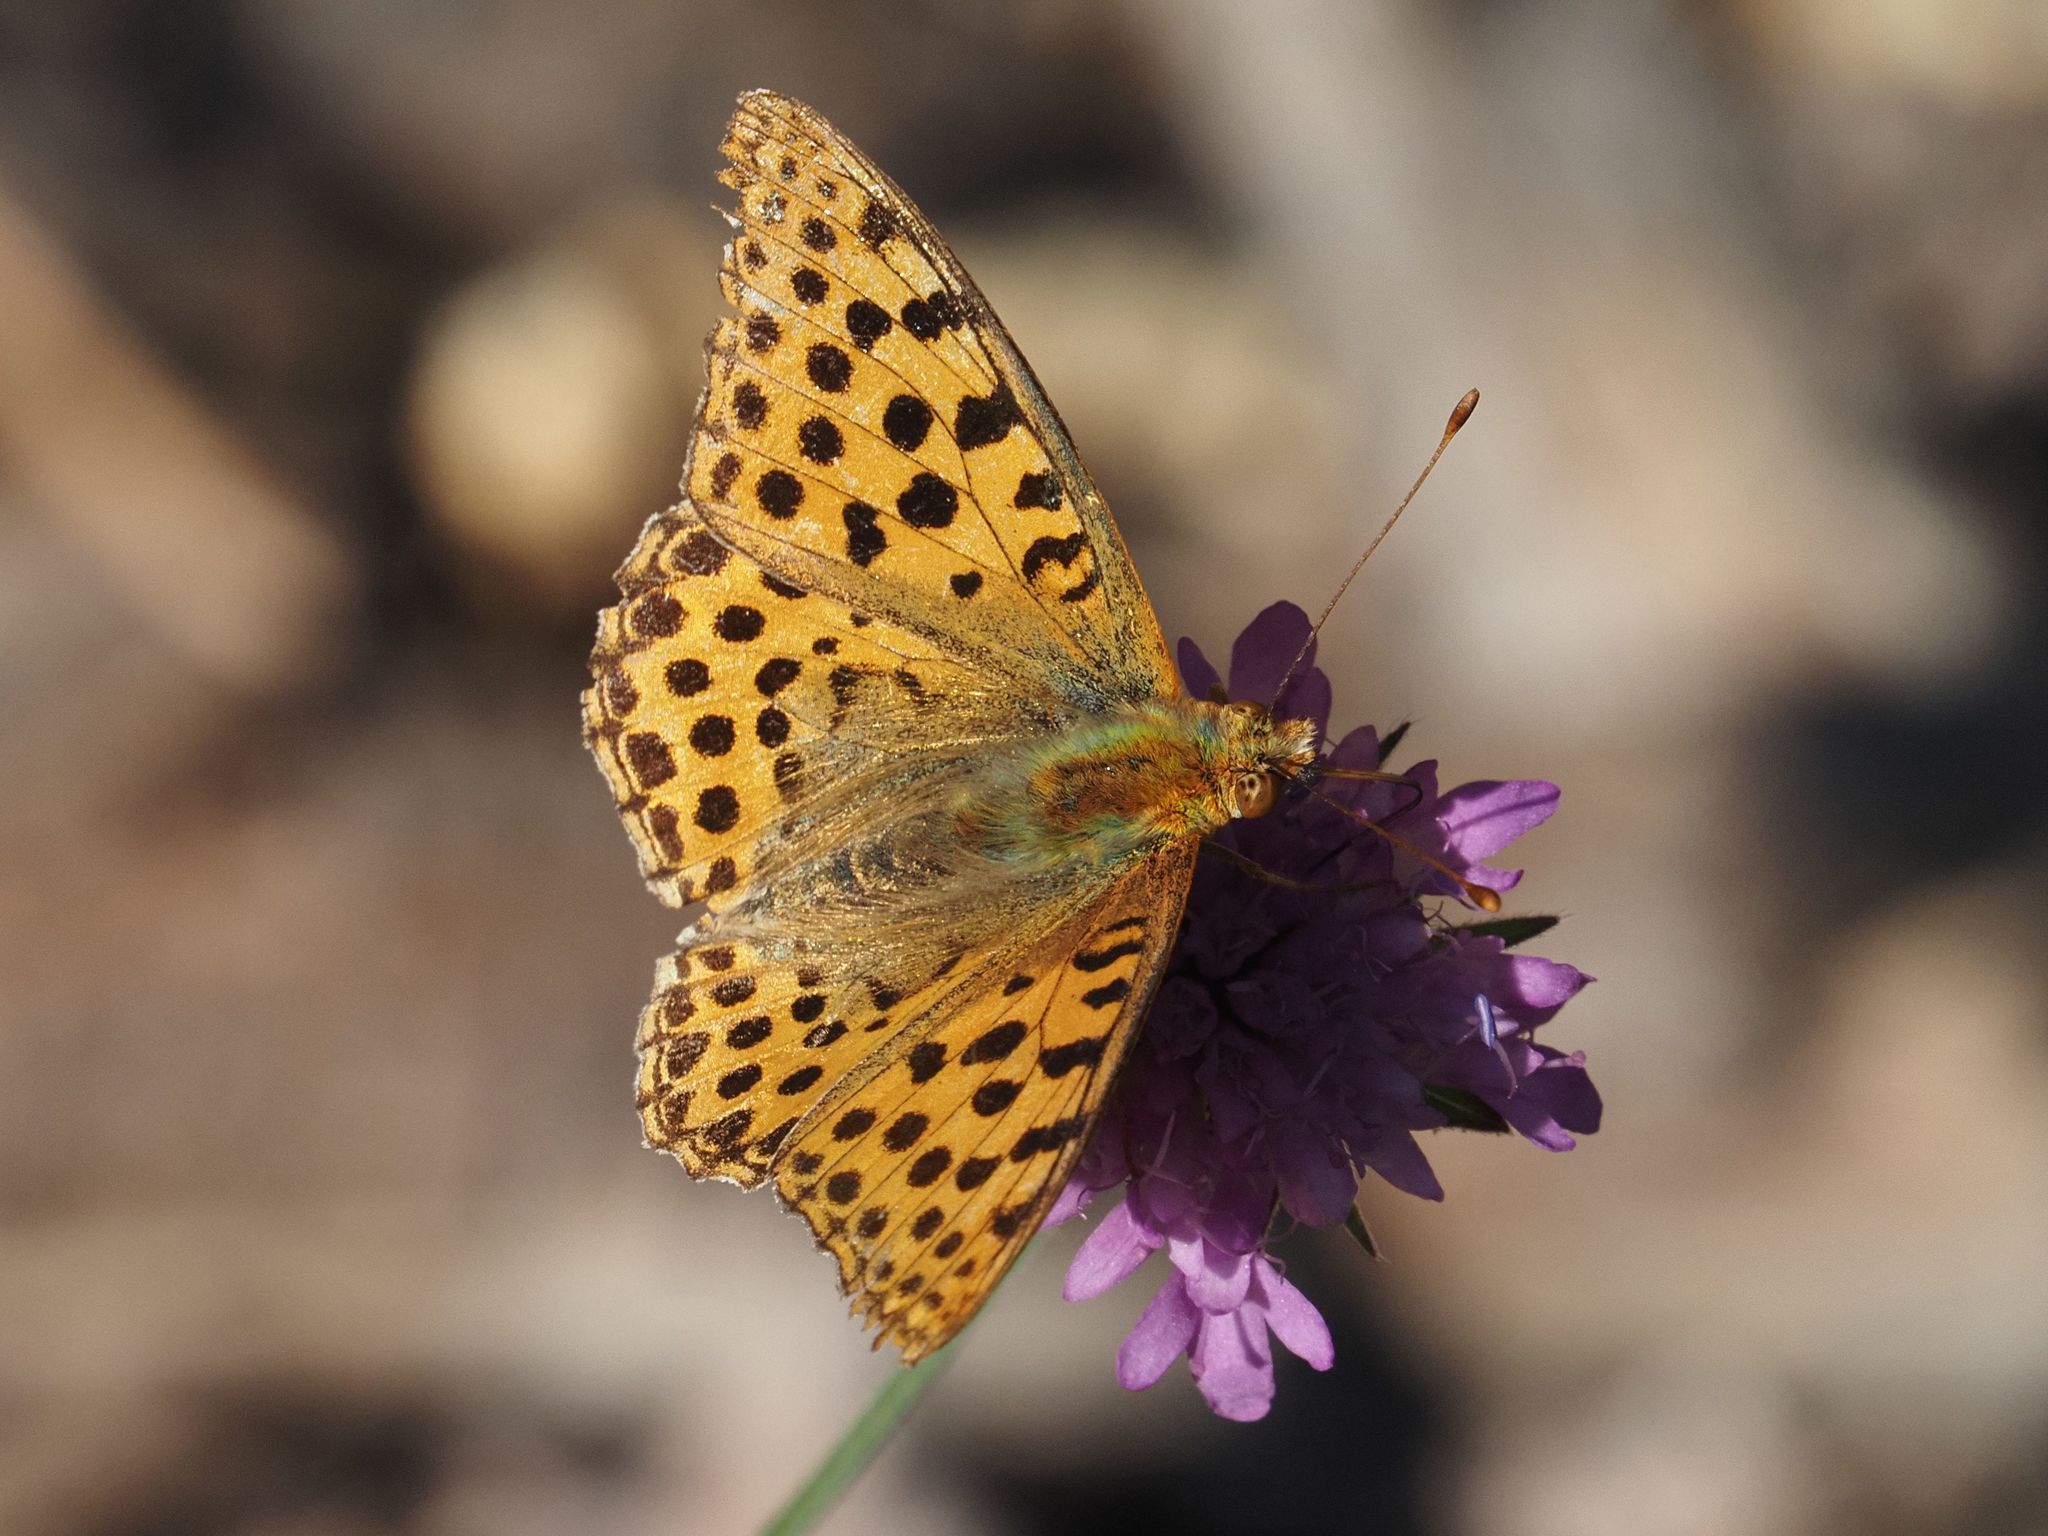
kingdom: Animalia
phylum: Arthropoda
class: Insecta
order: Lepidoptera
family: Nymphalidae
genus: Issoria
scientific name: Issoria lathonia
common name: Queen of spain fritillary
